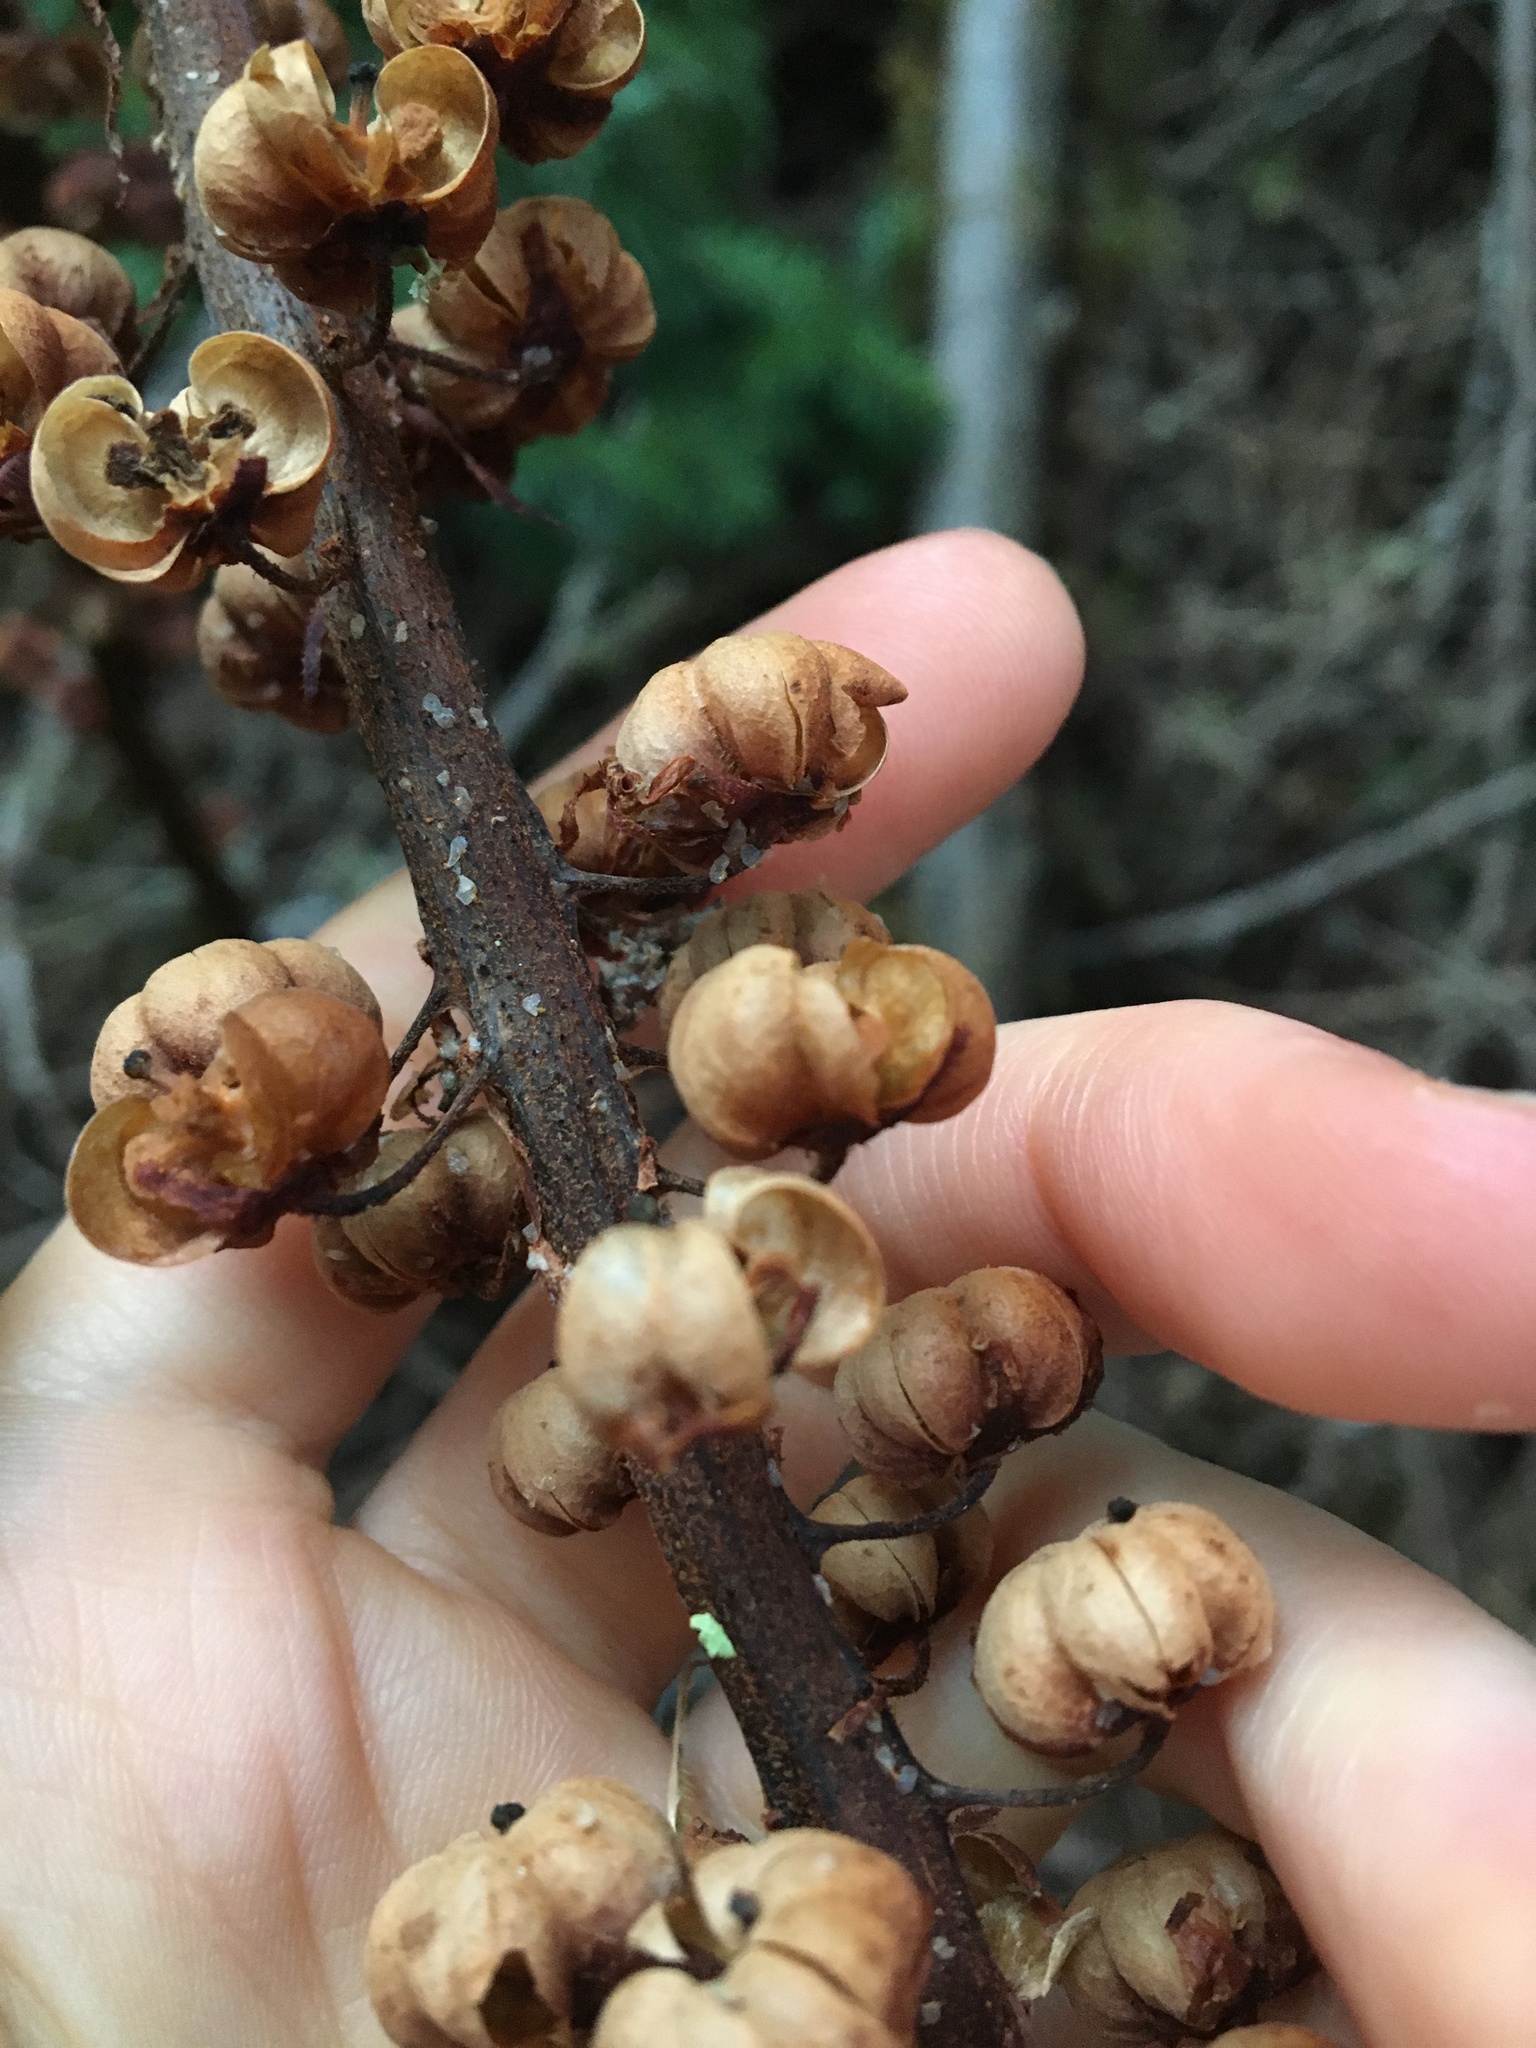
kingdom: Plantae
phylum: Tracheophyta
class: Magnoliopsida
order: Ericales
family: Ericaceae
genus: Pterospora
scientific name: Pterospora andromedea
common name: Giant bird's-nest
